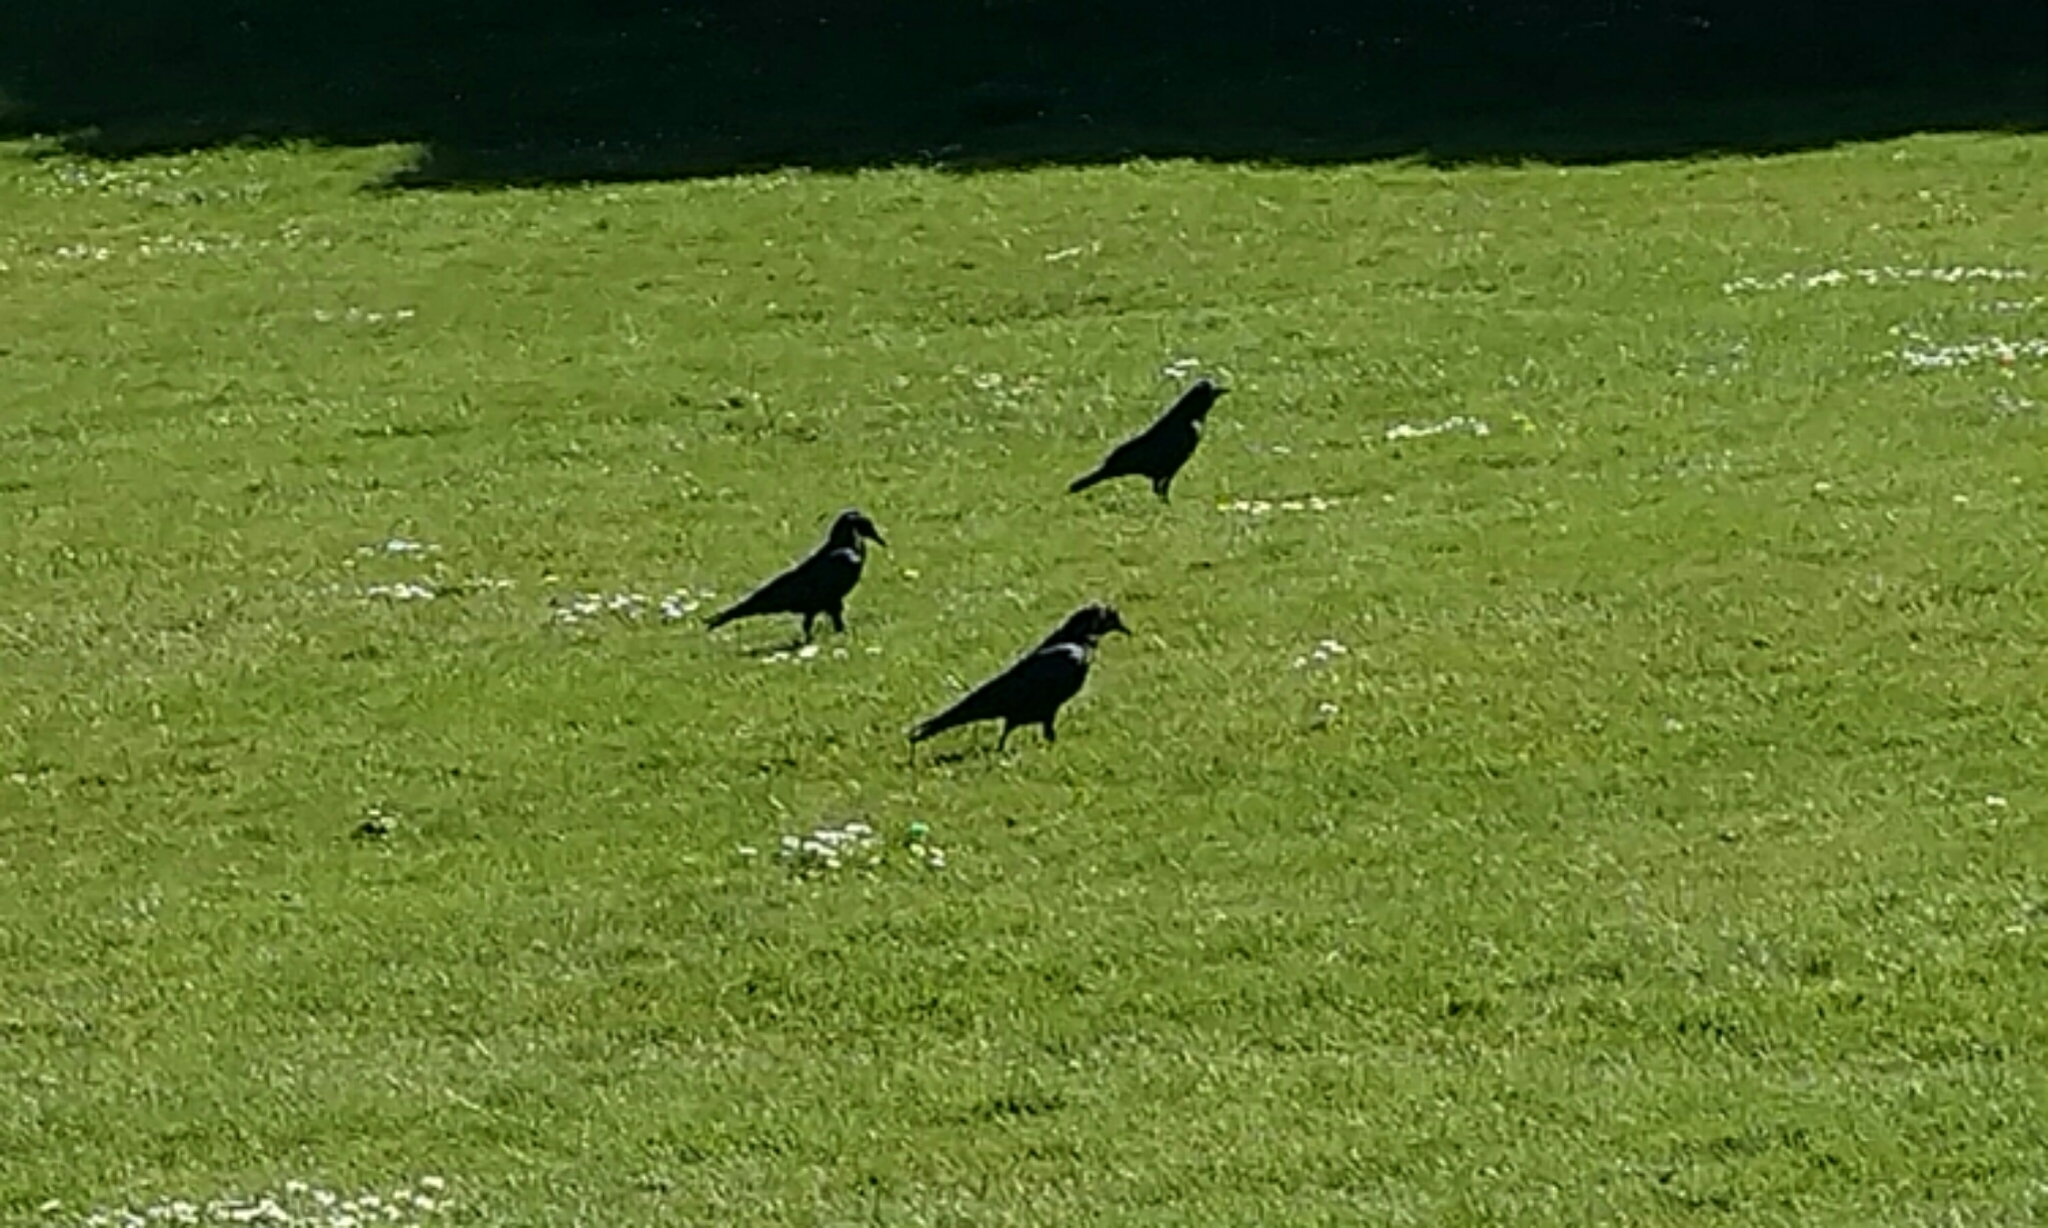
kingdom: Animalia
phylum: Chordata
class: Aves
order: Passeriformes
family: Corvidae
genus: Corvus
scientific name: Corvus brachyrhynchos
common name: American crow
